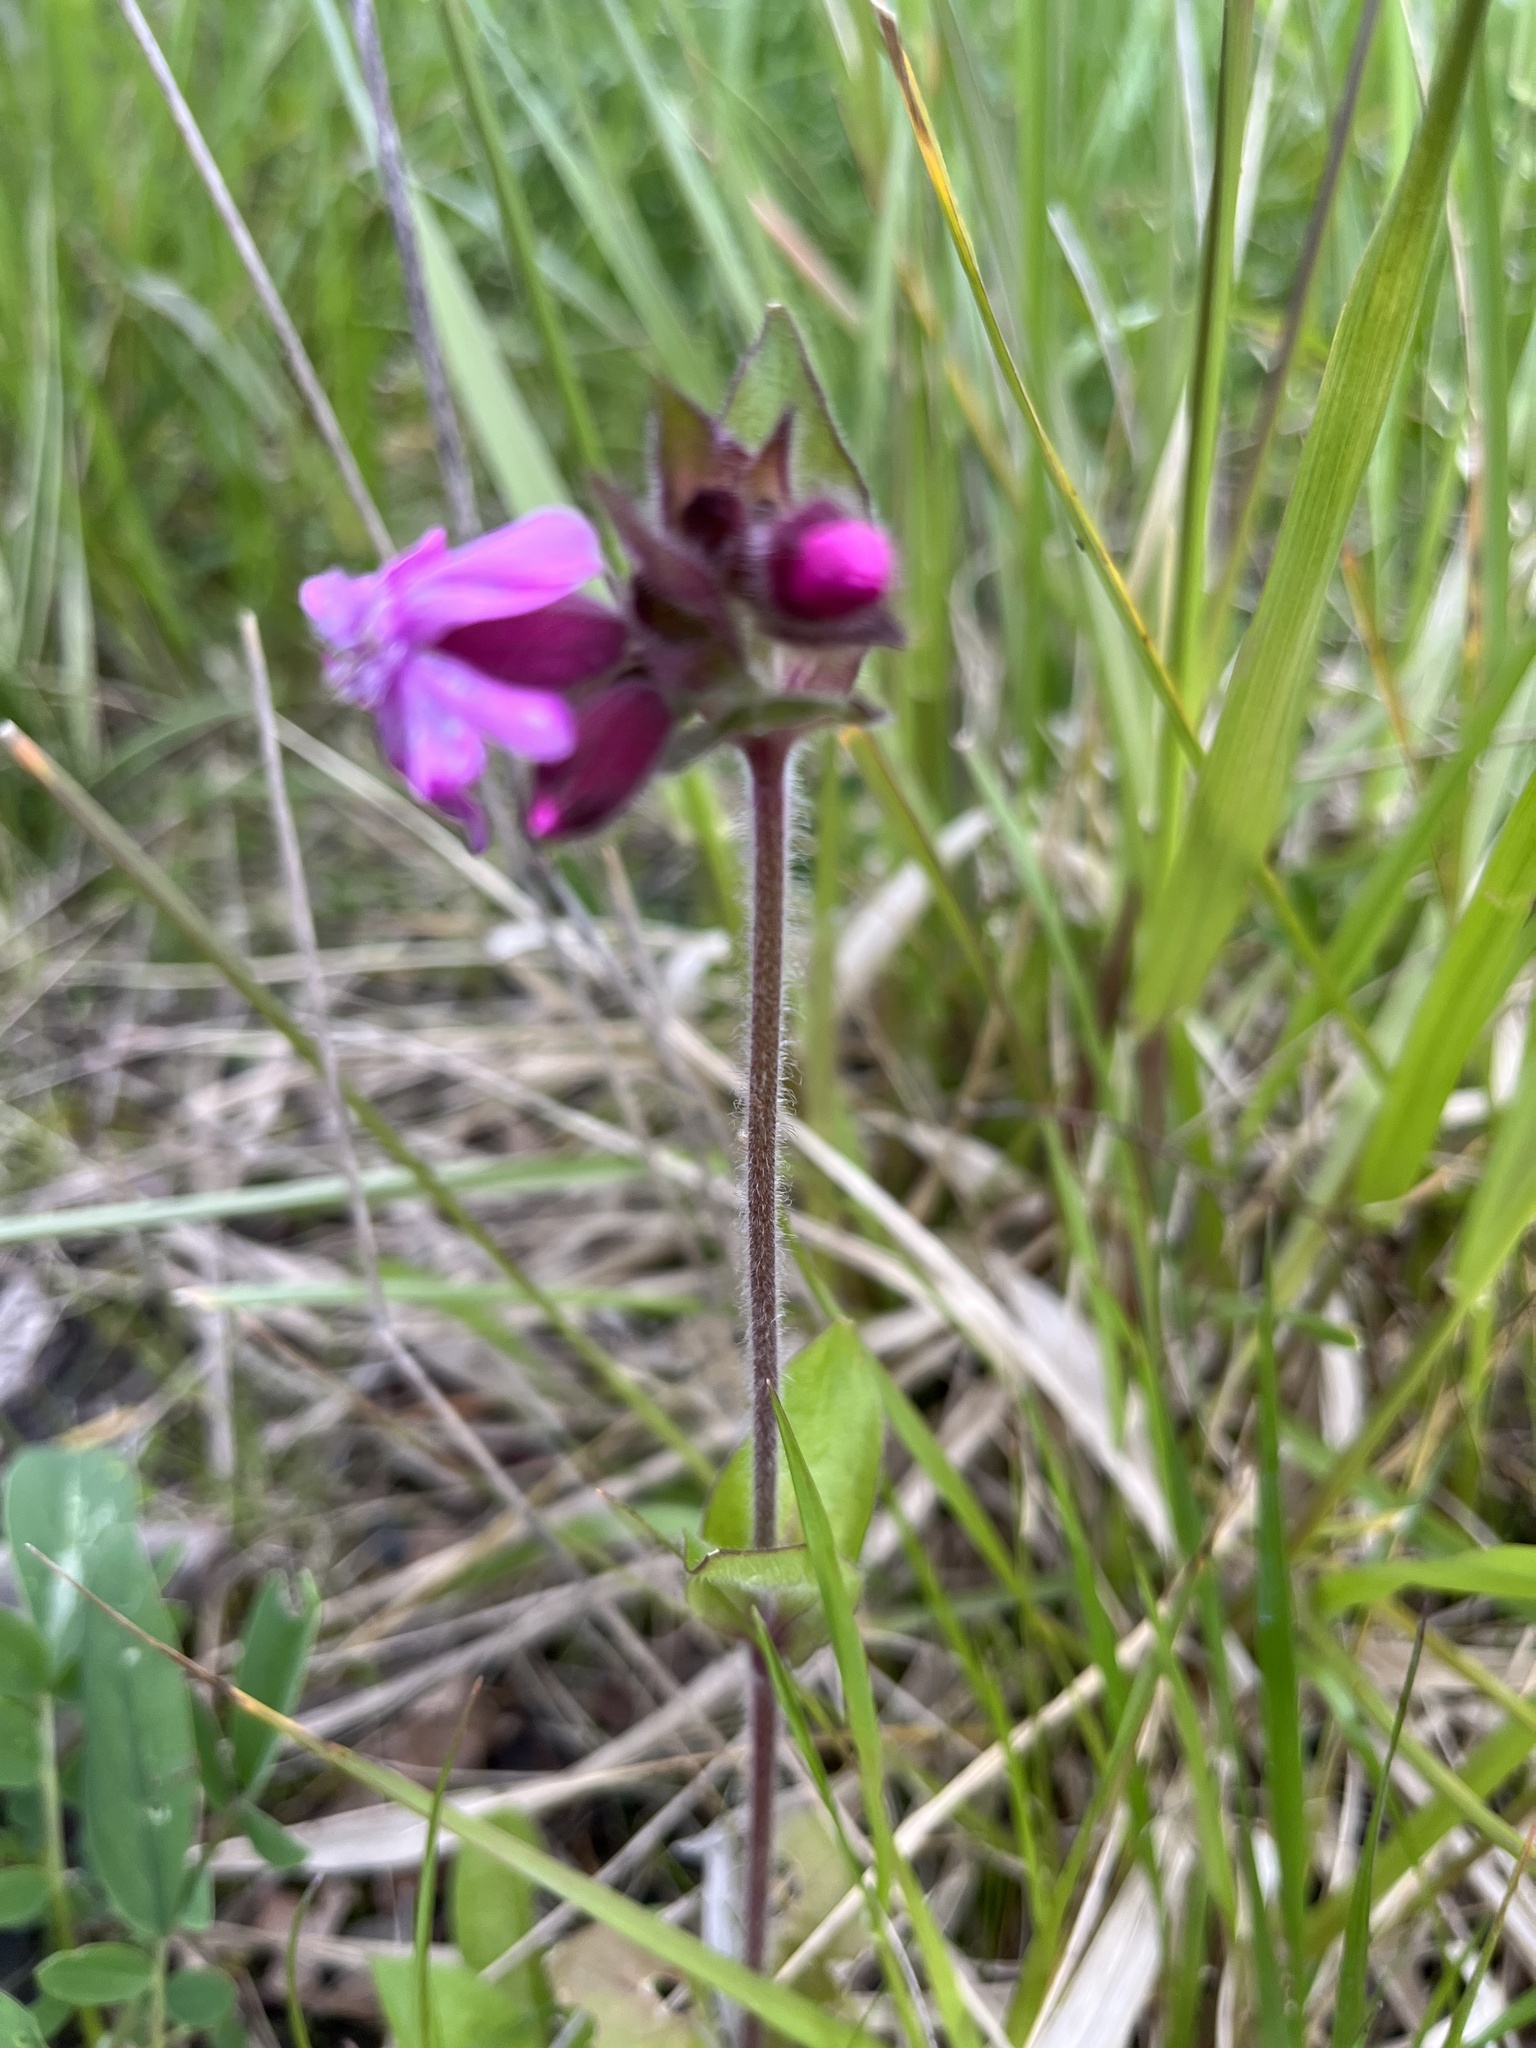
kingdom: Plantae
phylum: Tracheophyta
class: Magnoliopsida
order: Caryophyllales
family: Caryophyllaceae
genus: Silene
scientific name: Silene dioica
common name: Red campion
